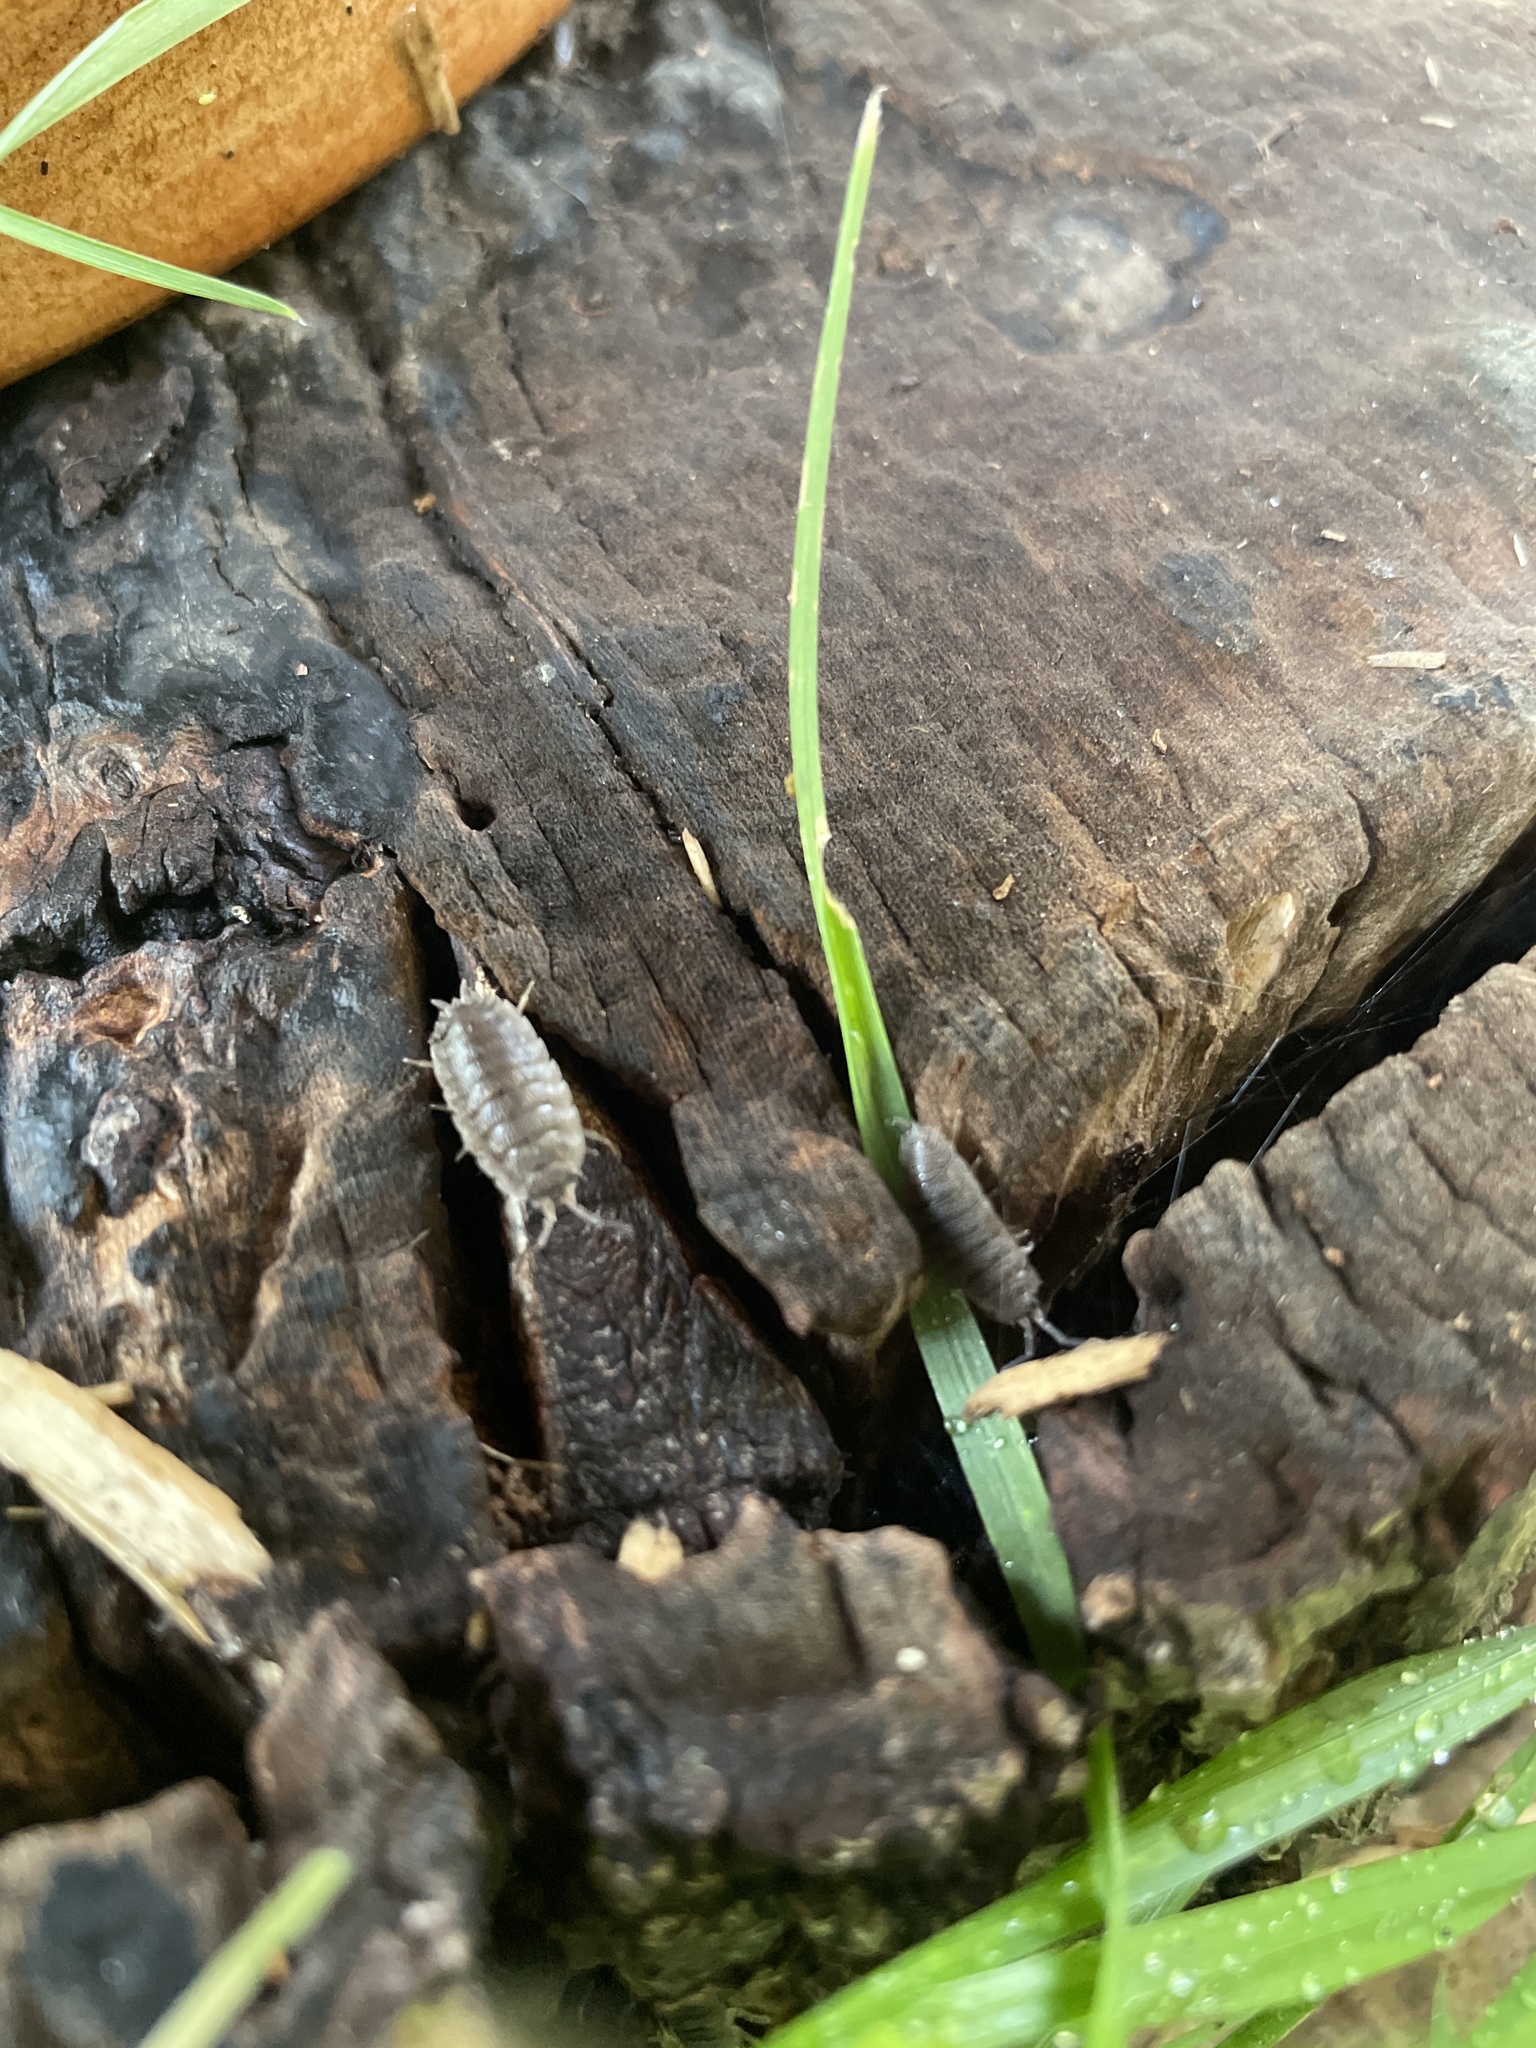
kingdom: Animalia
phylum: Arthropoda
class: Malacostraca
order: Isopoda
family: Porcellionidae
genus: Porcellio
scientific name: Porcellio scaber
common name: Common rough woodlouse
